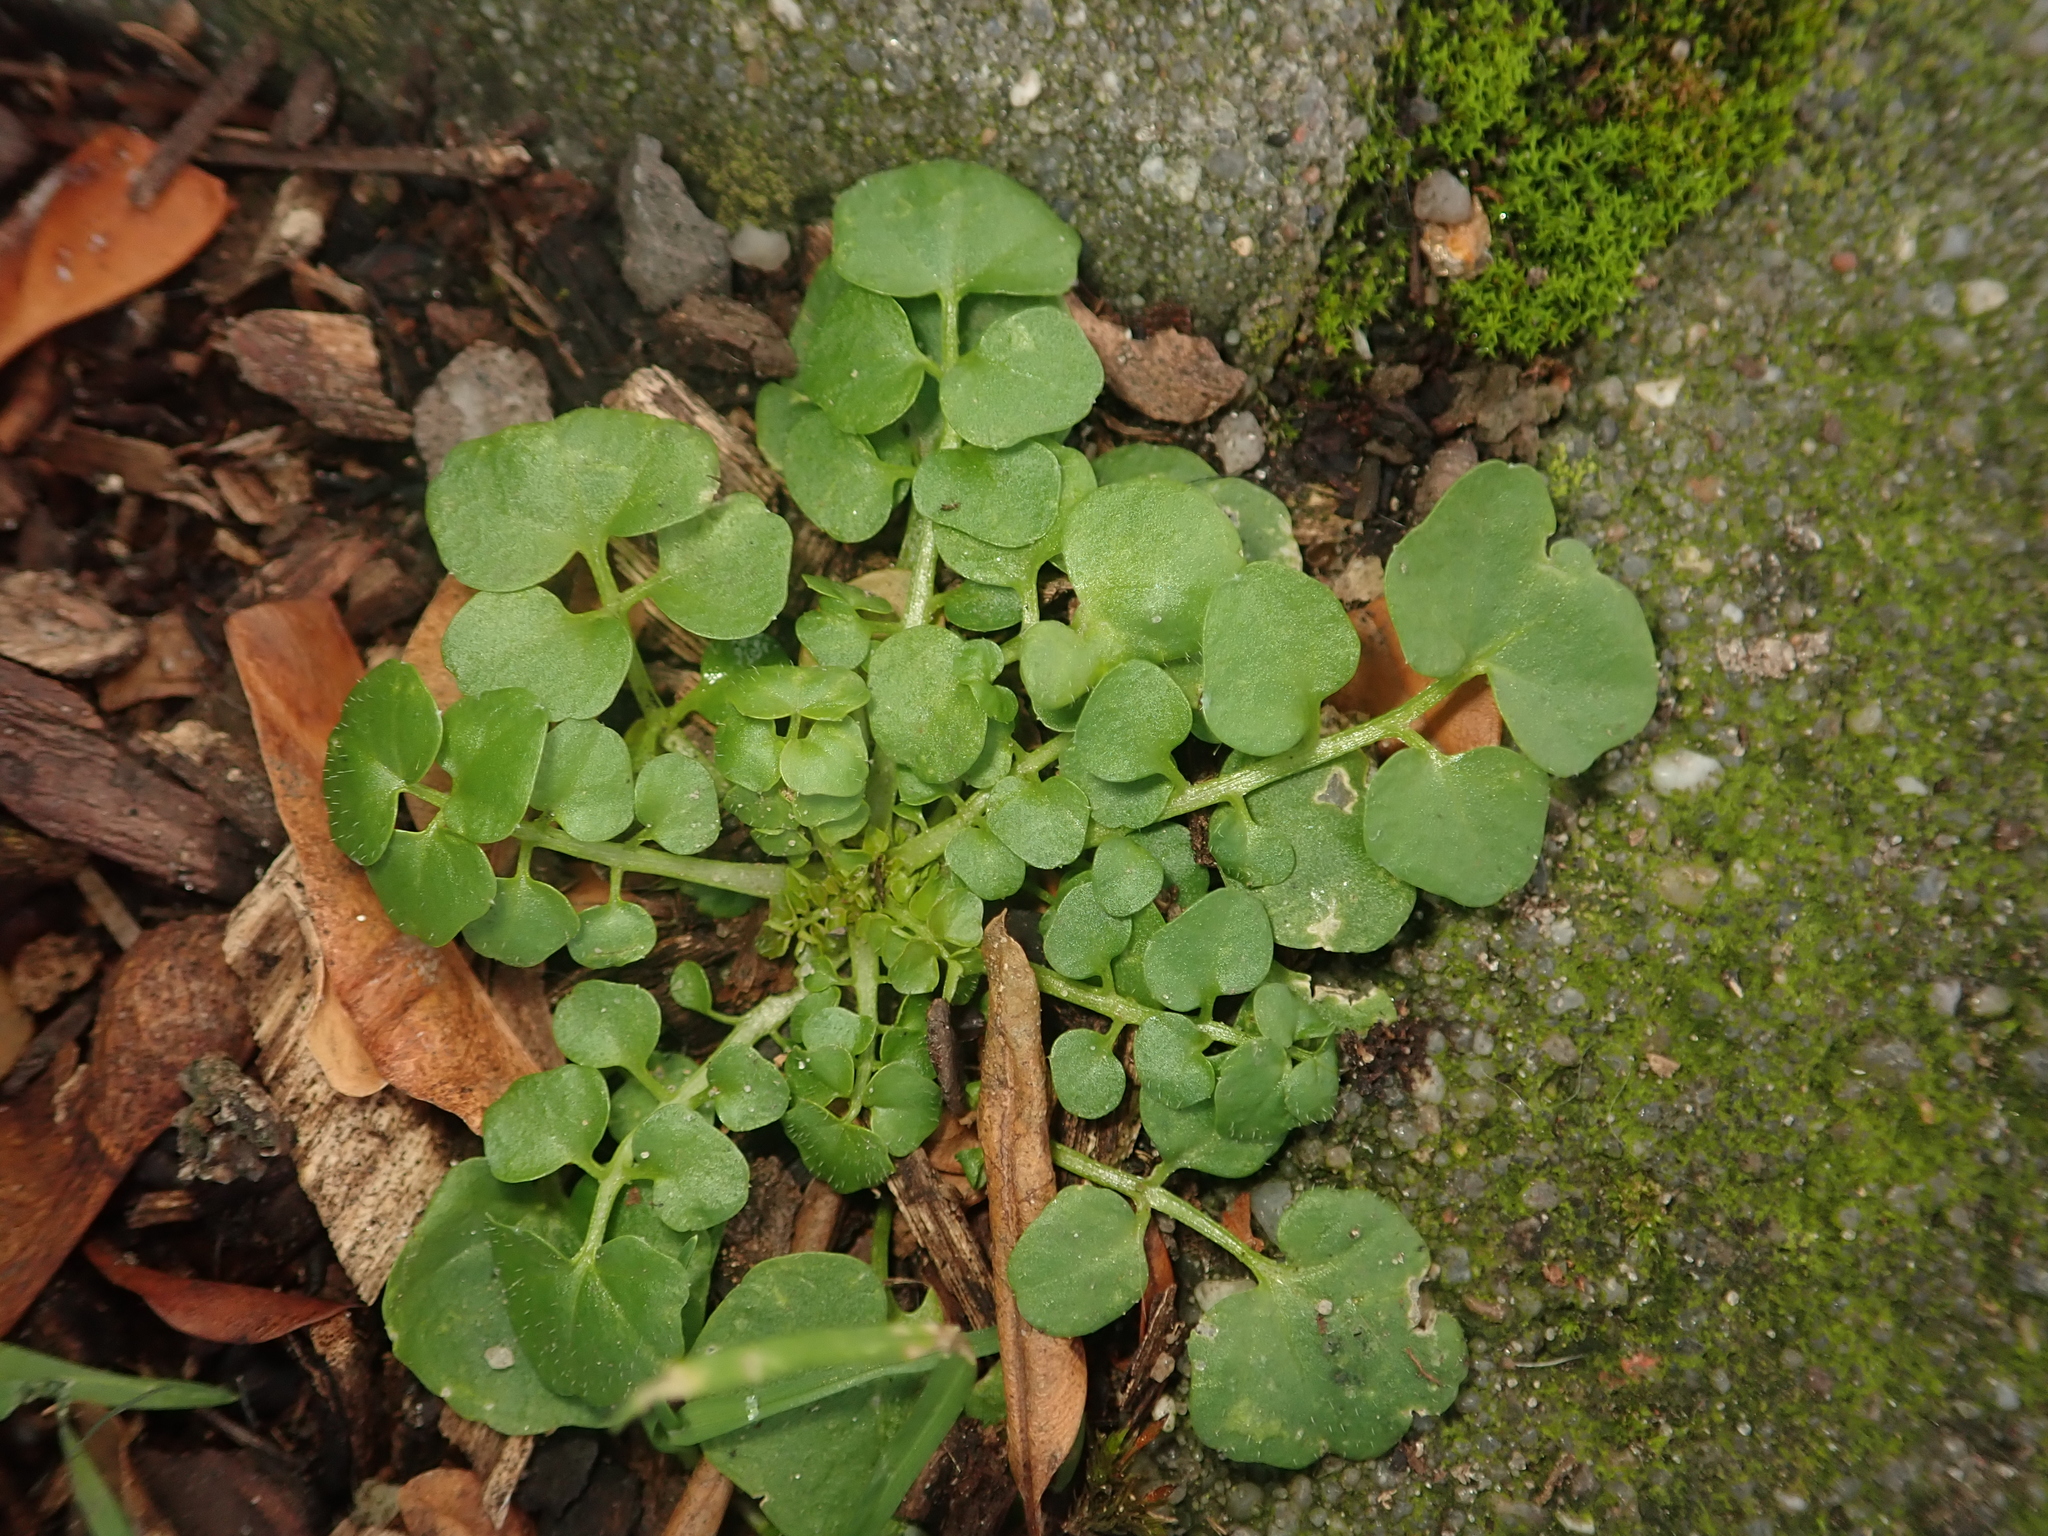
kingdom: Plantae
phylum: Tracheophyta
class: Magnoliopsida
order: Brassicales
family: Brassicaceae
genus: Cardamine
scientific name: Cardamine hirsuta
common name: Hairy bittercress
